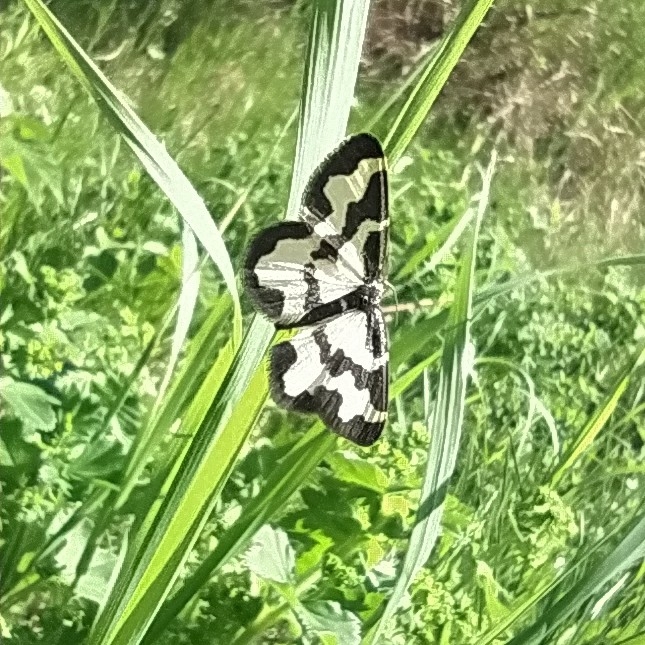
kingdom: Animalia
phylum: Arthropoda
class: Insecta
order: Lepidoptera
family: Geometridae
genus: Lomaspilis
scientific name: Lomaspilis marginata
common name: Clouded border
